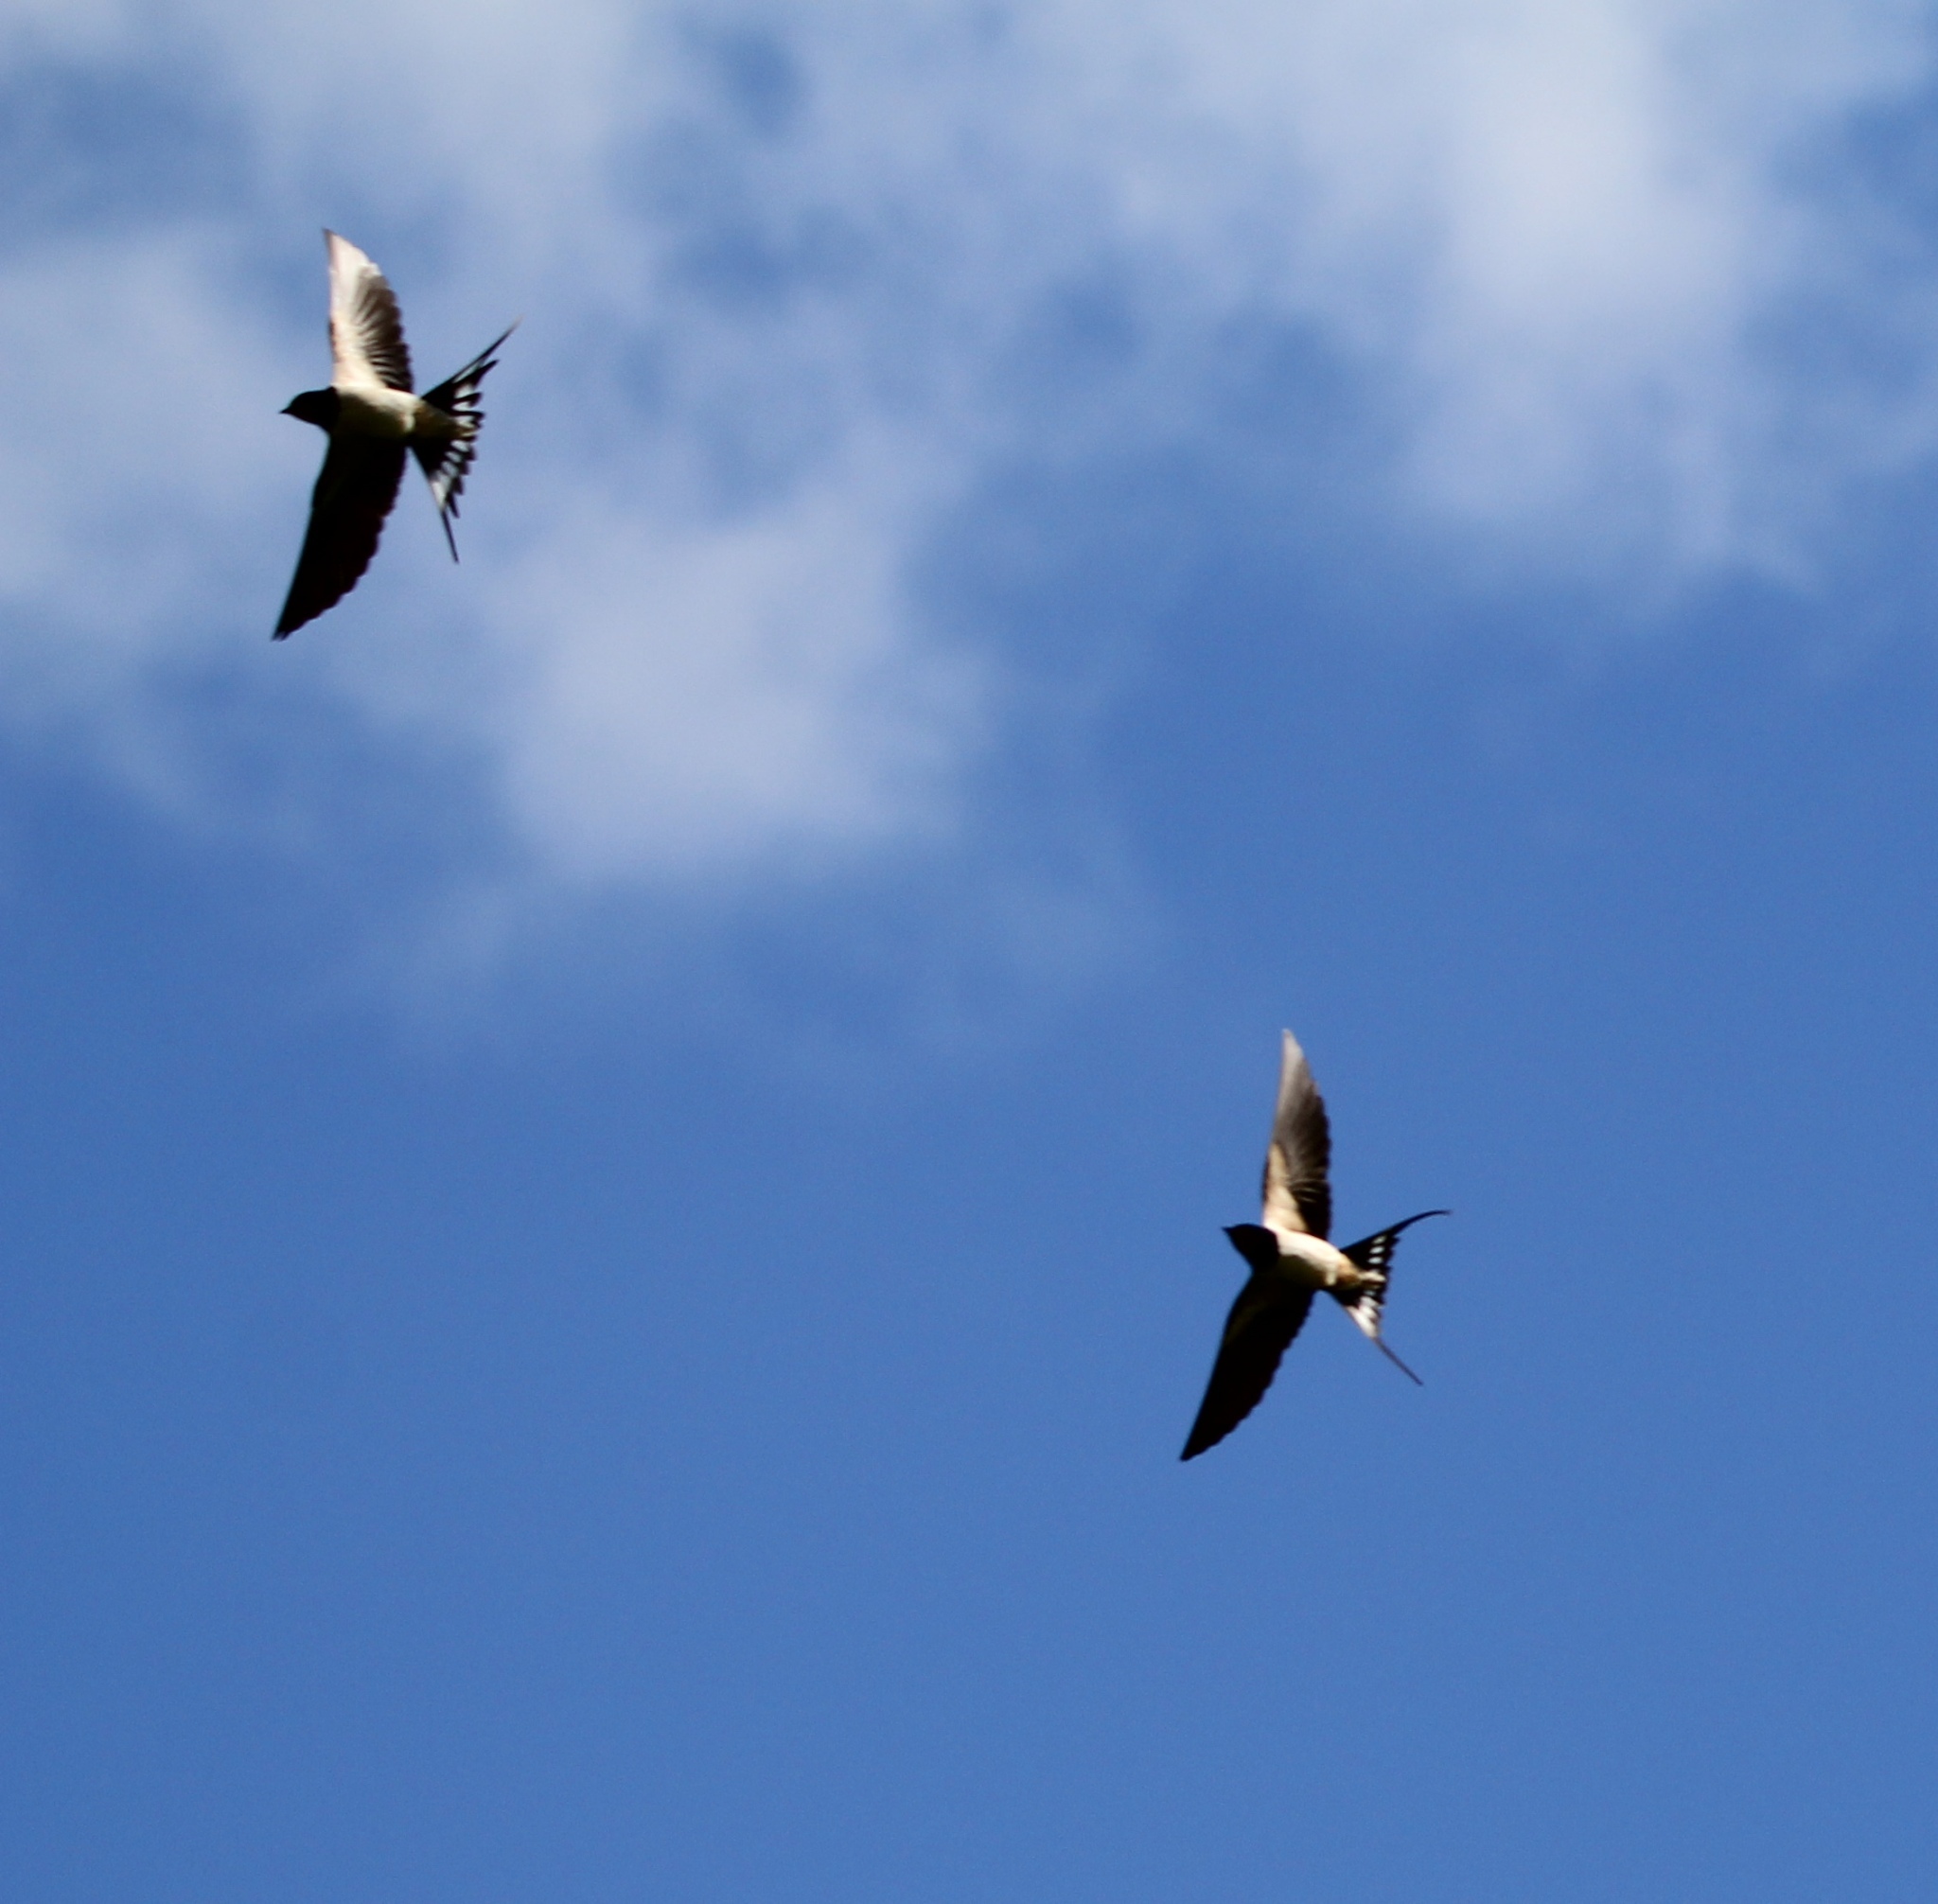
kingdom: Animalia
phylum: Chordata
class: Aves
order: Passeriformes
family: Hirundinidae
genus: Hirundo
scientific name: Hirundo rustica
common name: Barn swallow
